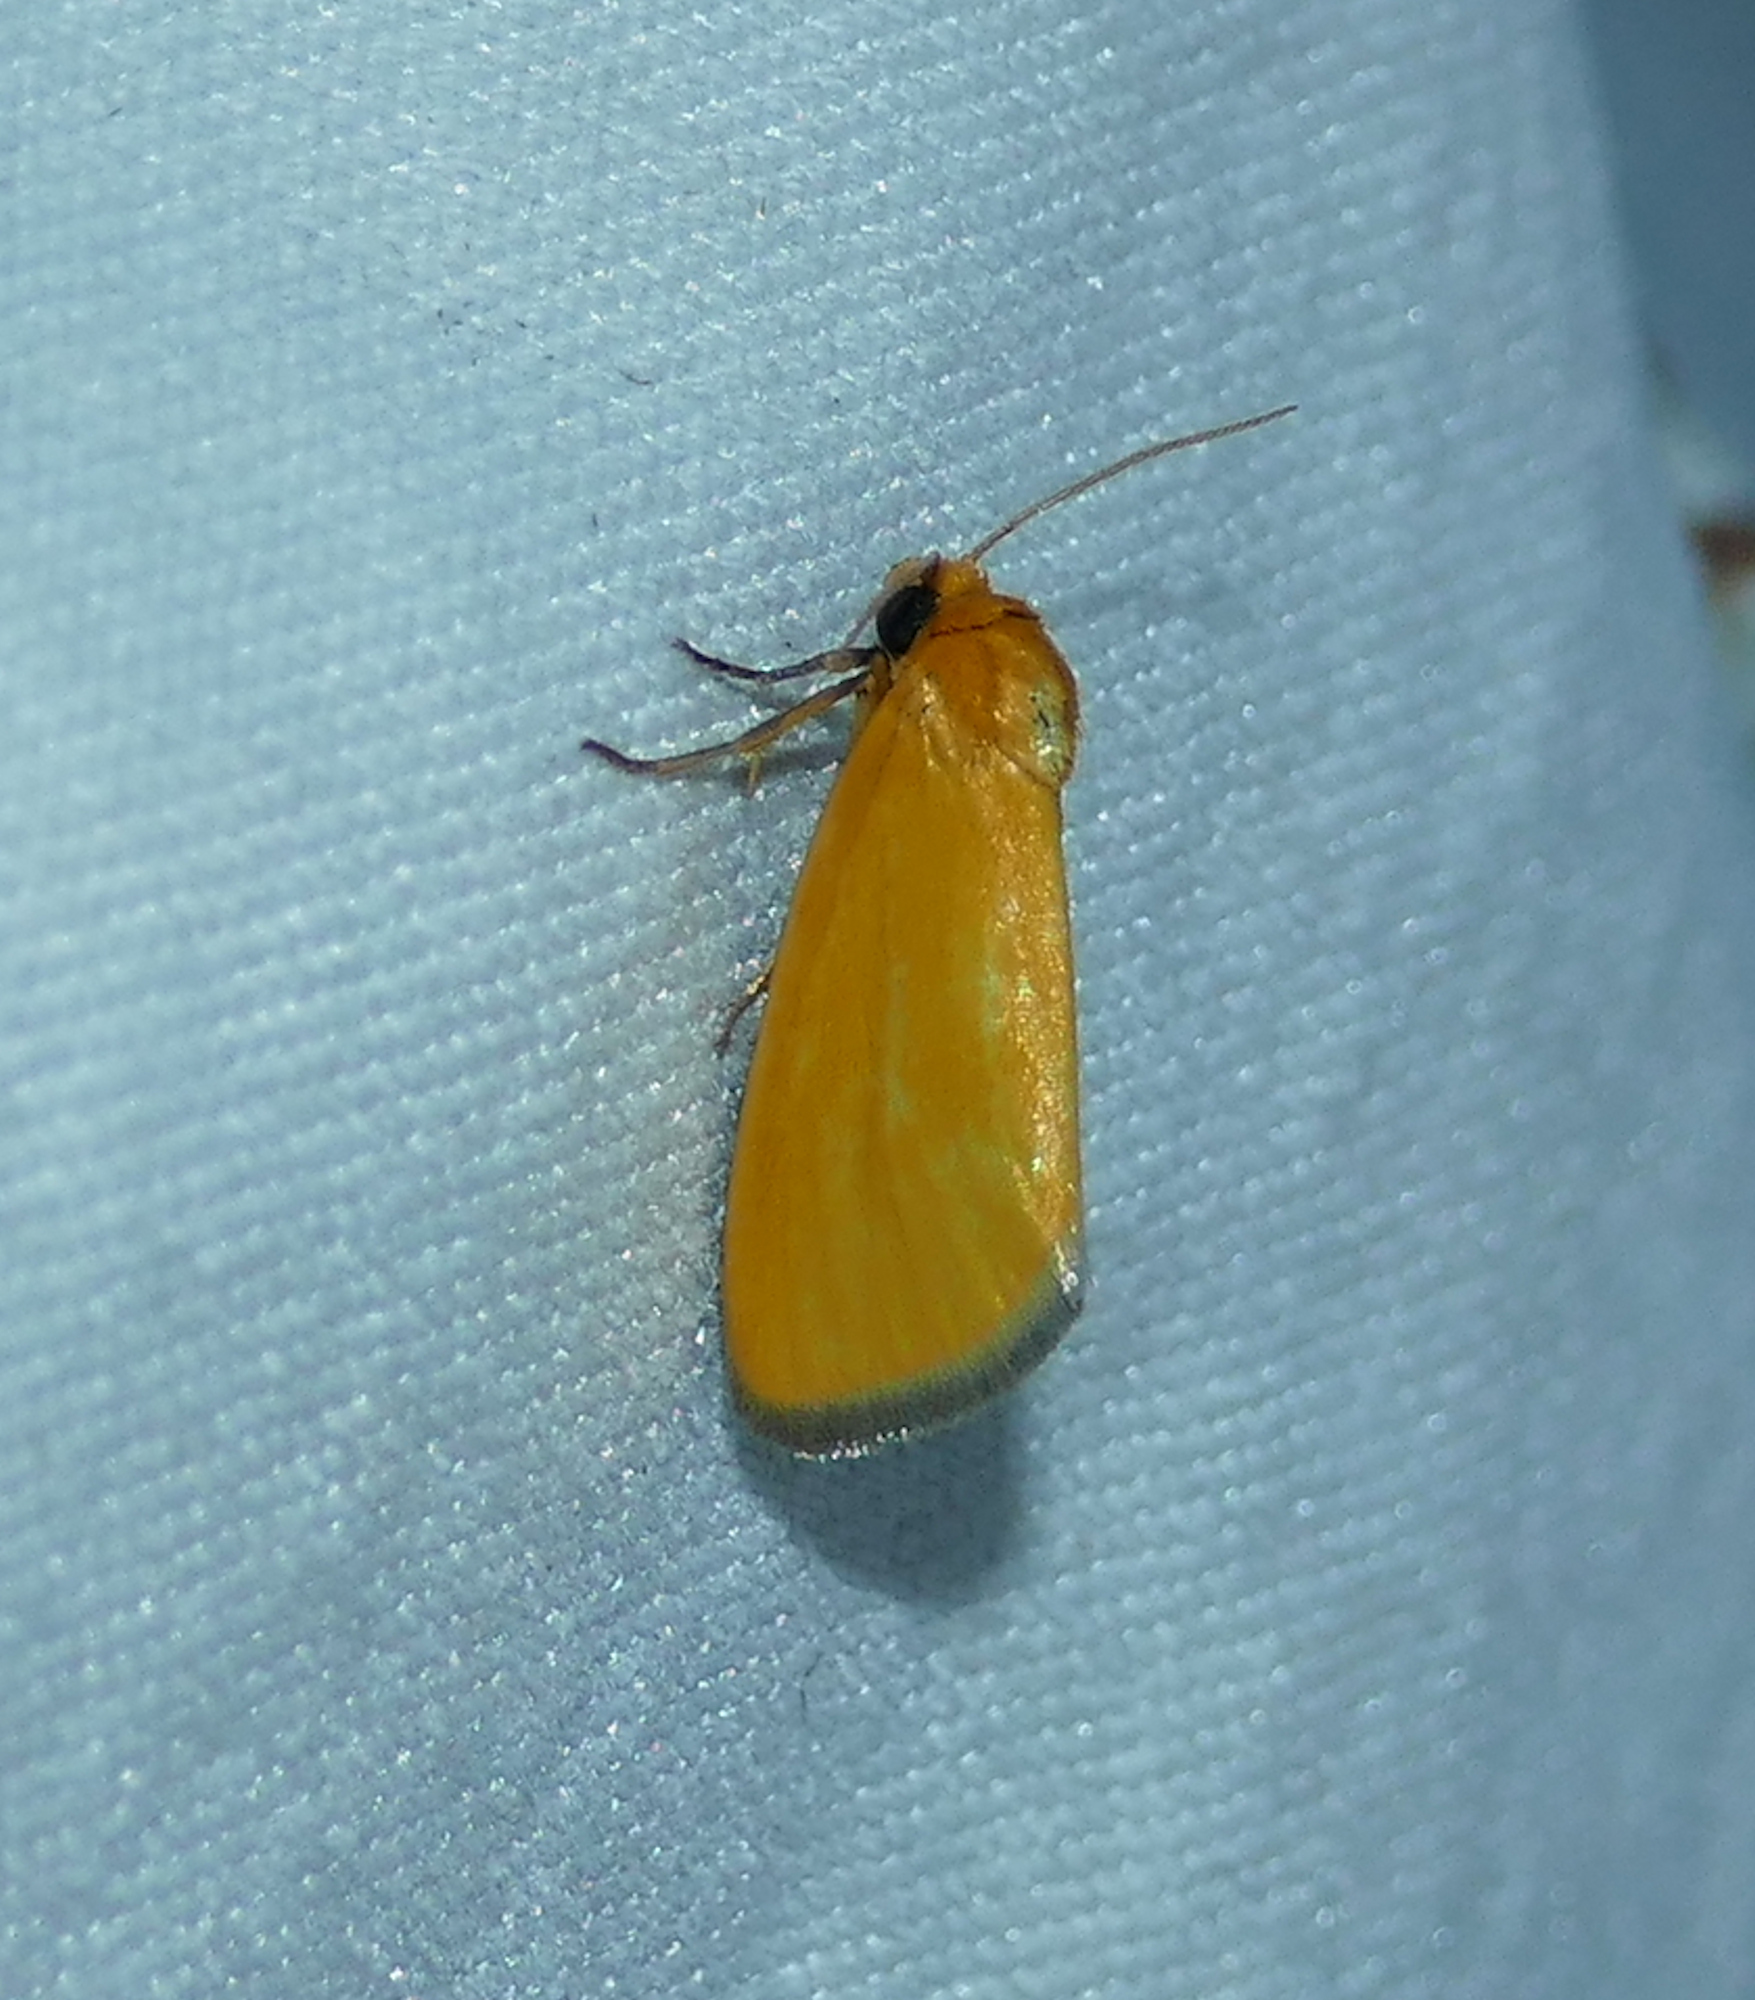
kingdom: Animalia
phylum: Arthropoda
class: Insecta
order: Lepidoptera
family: Noctuidae
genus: Antaplaga
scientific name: Antaplaga Eulithosia composita
